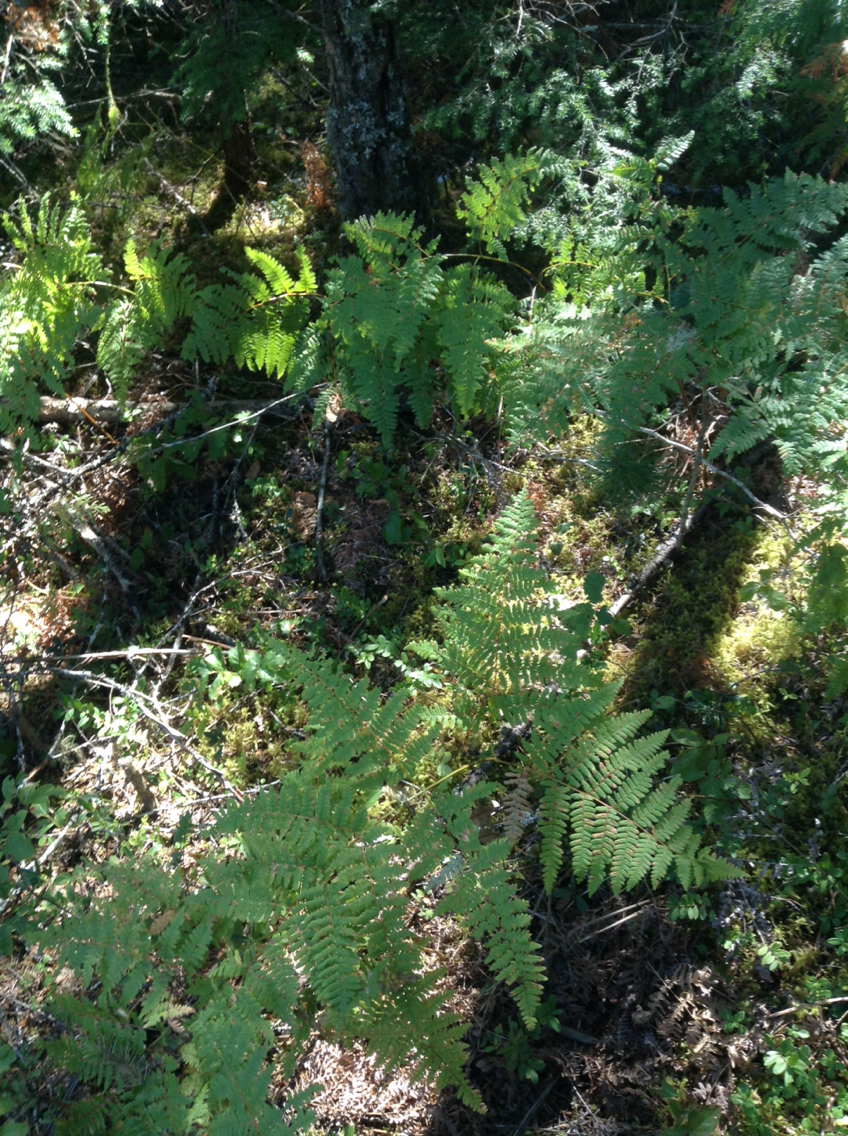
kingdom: Plantae
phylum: Tracheophyta
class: Polypodiopsida
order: Polypodiales
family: Dennstaedtiaceae
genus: Pteridium
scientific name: Pteridium aquilinum
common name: Bracken
